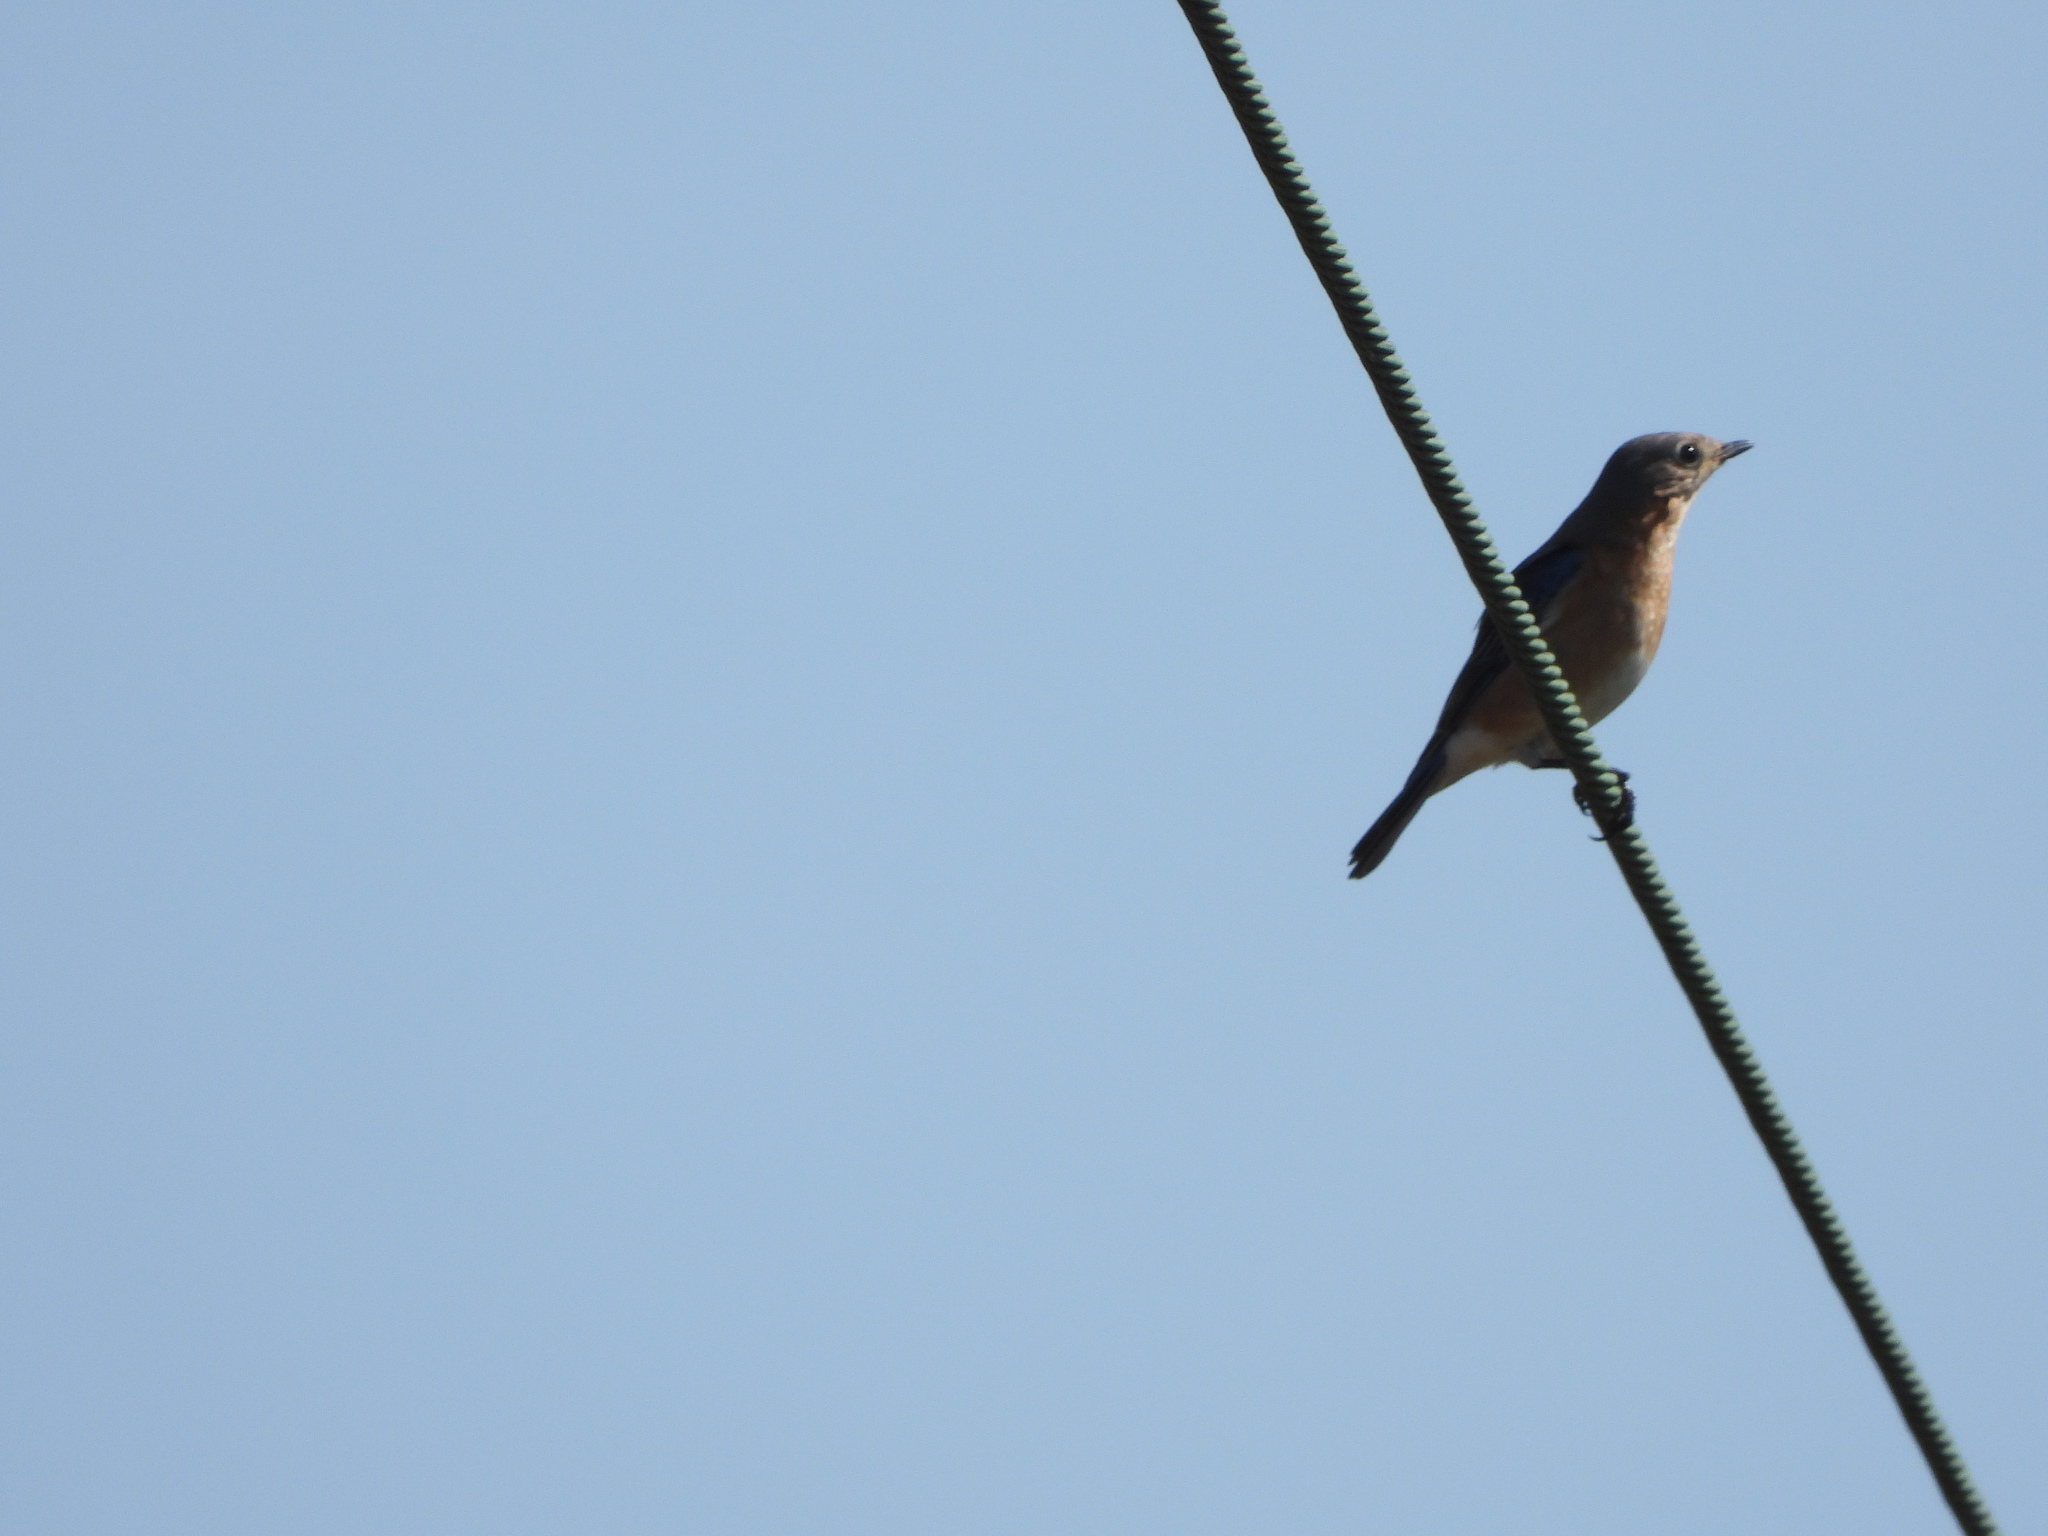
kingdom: Animalia
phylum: Chordata
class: Aves
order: Passeriformes
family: Turdidae
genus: Sialia
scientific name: Sialia sialis
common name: Eastern bluebird
